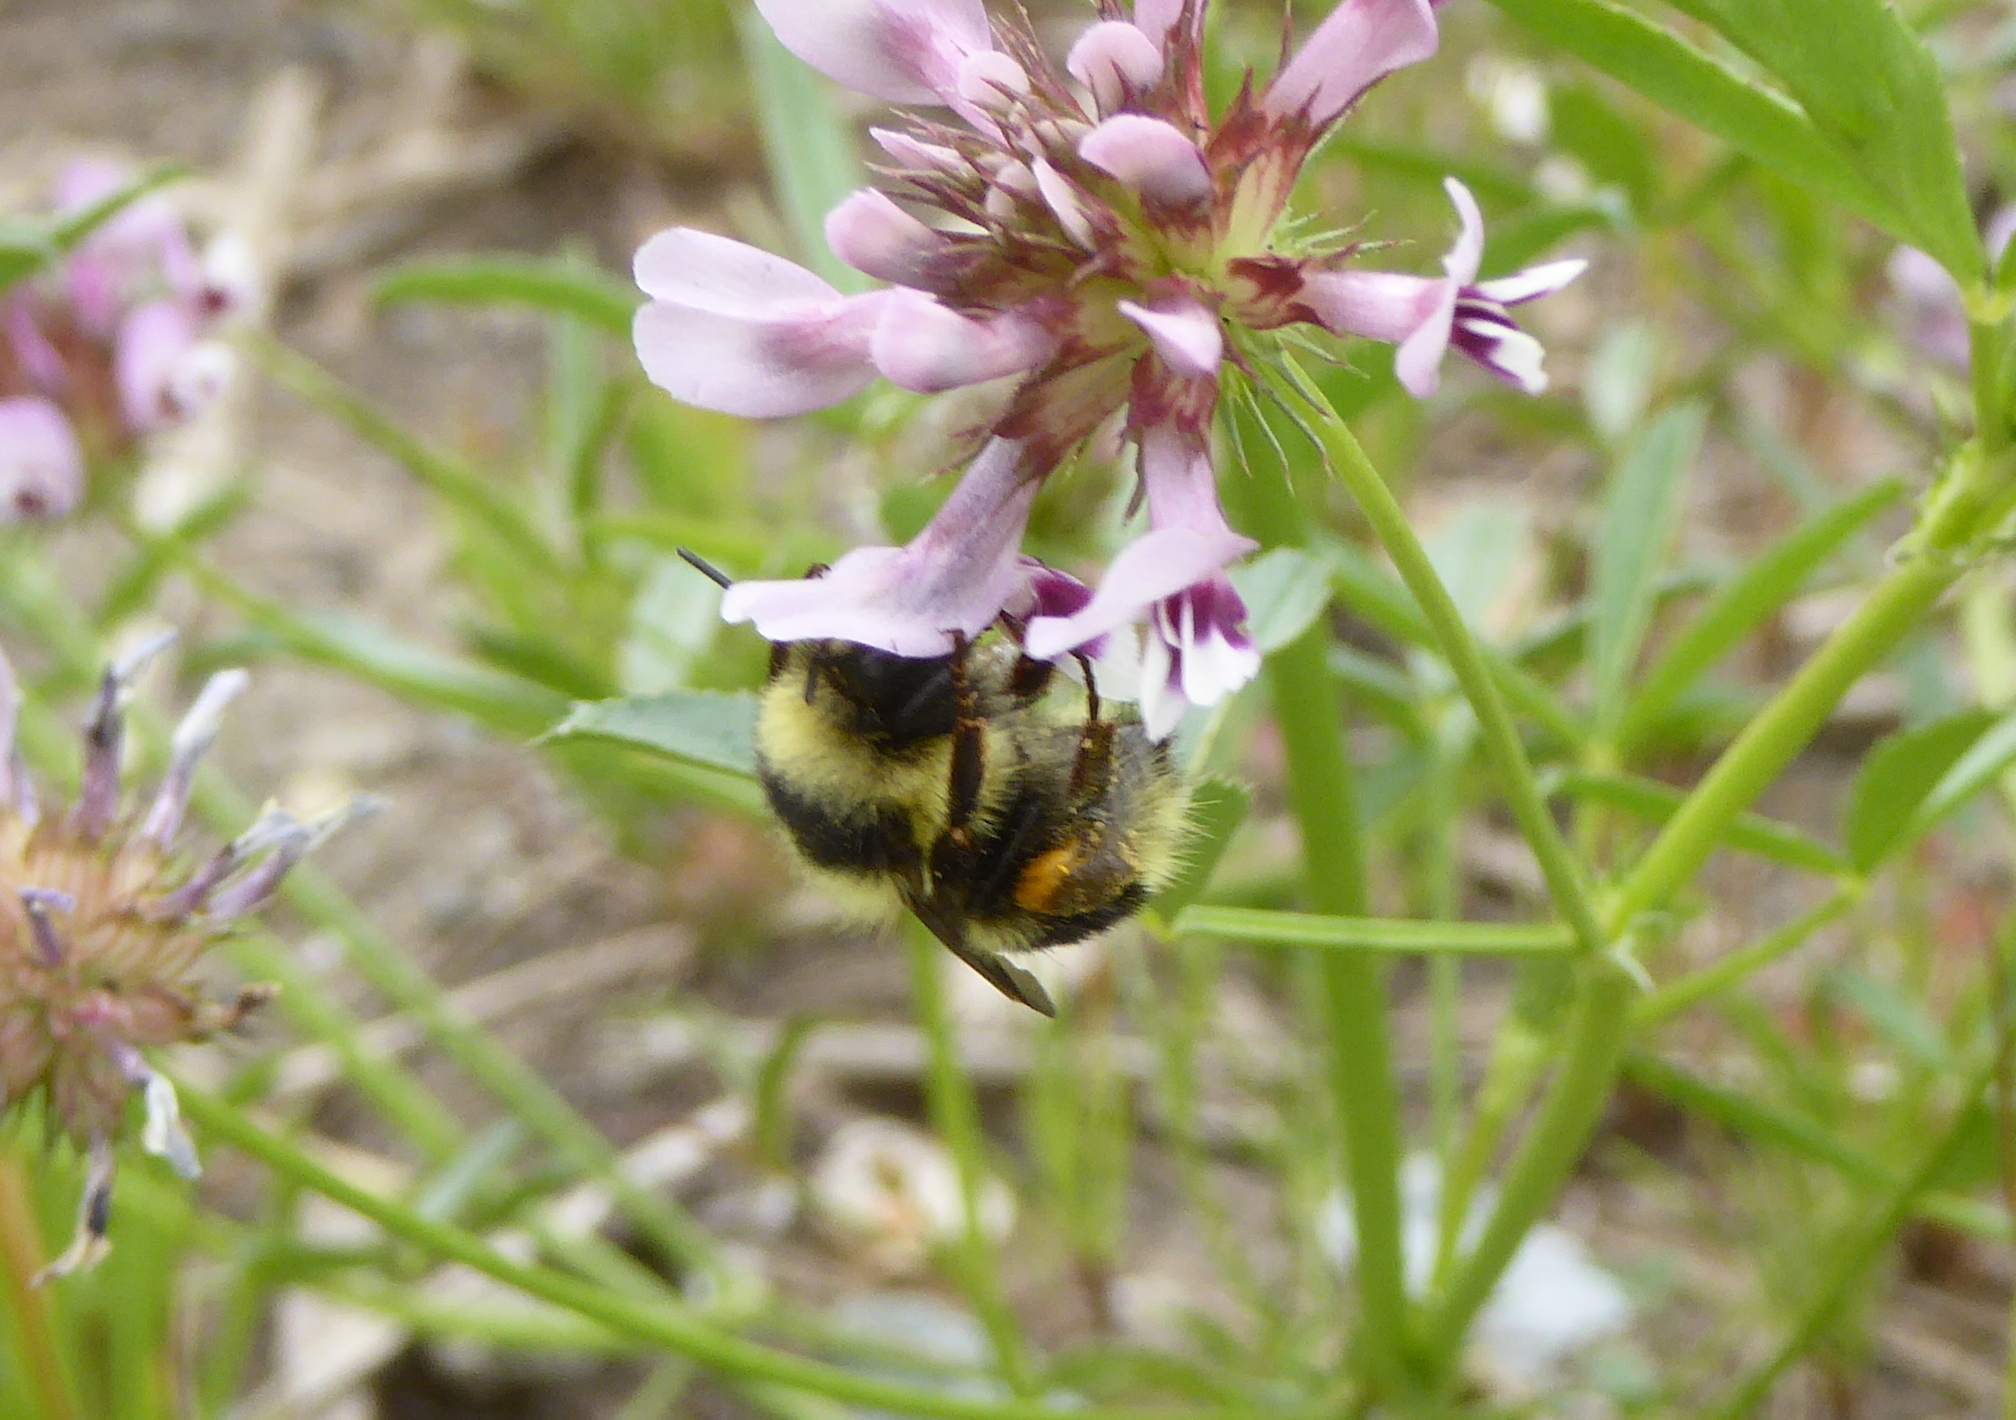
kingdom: Animalia
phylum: Arthropoda
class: Insecta
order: Hymenoptera
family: Apidae
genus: Bombus
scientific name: Bombus melanopygus
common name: Black tail bumble bee
